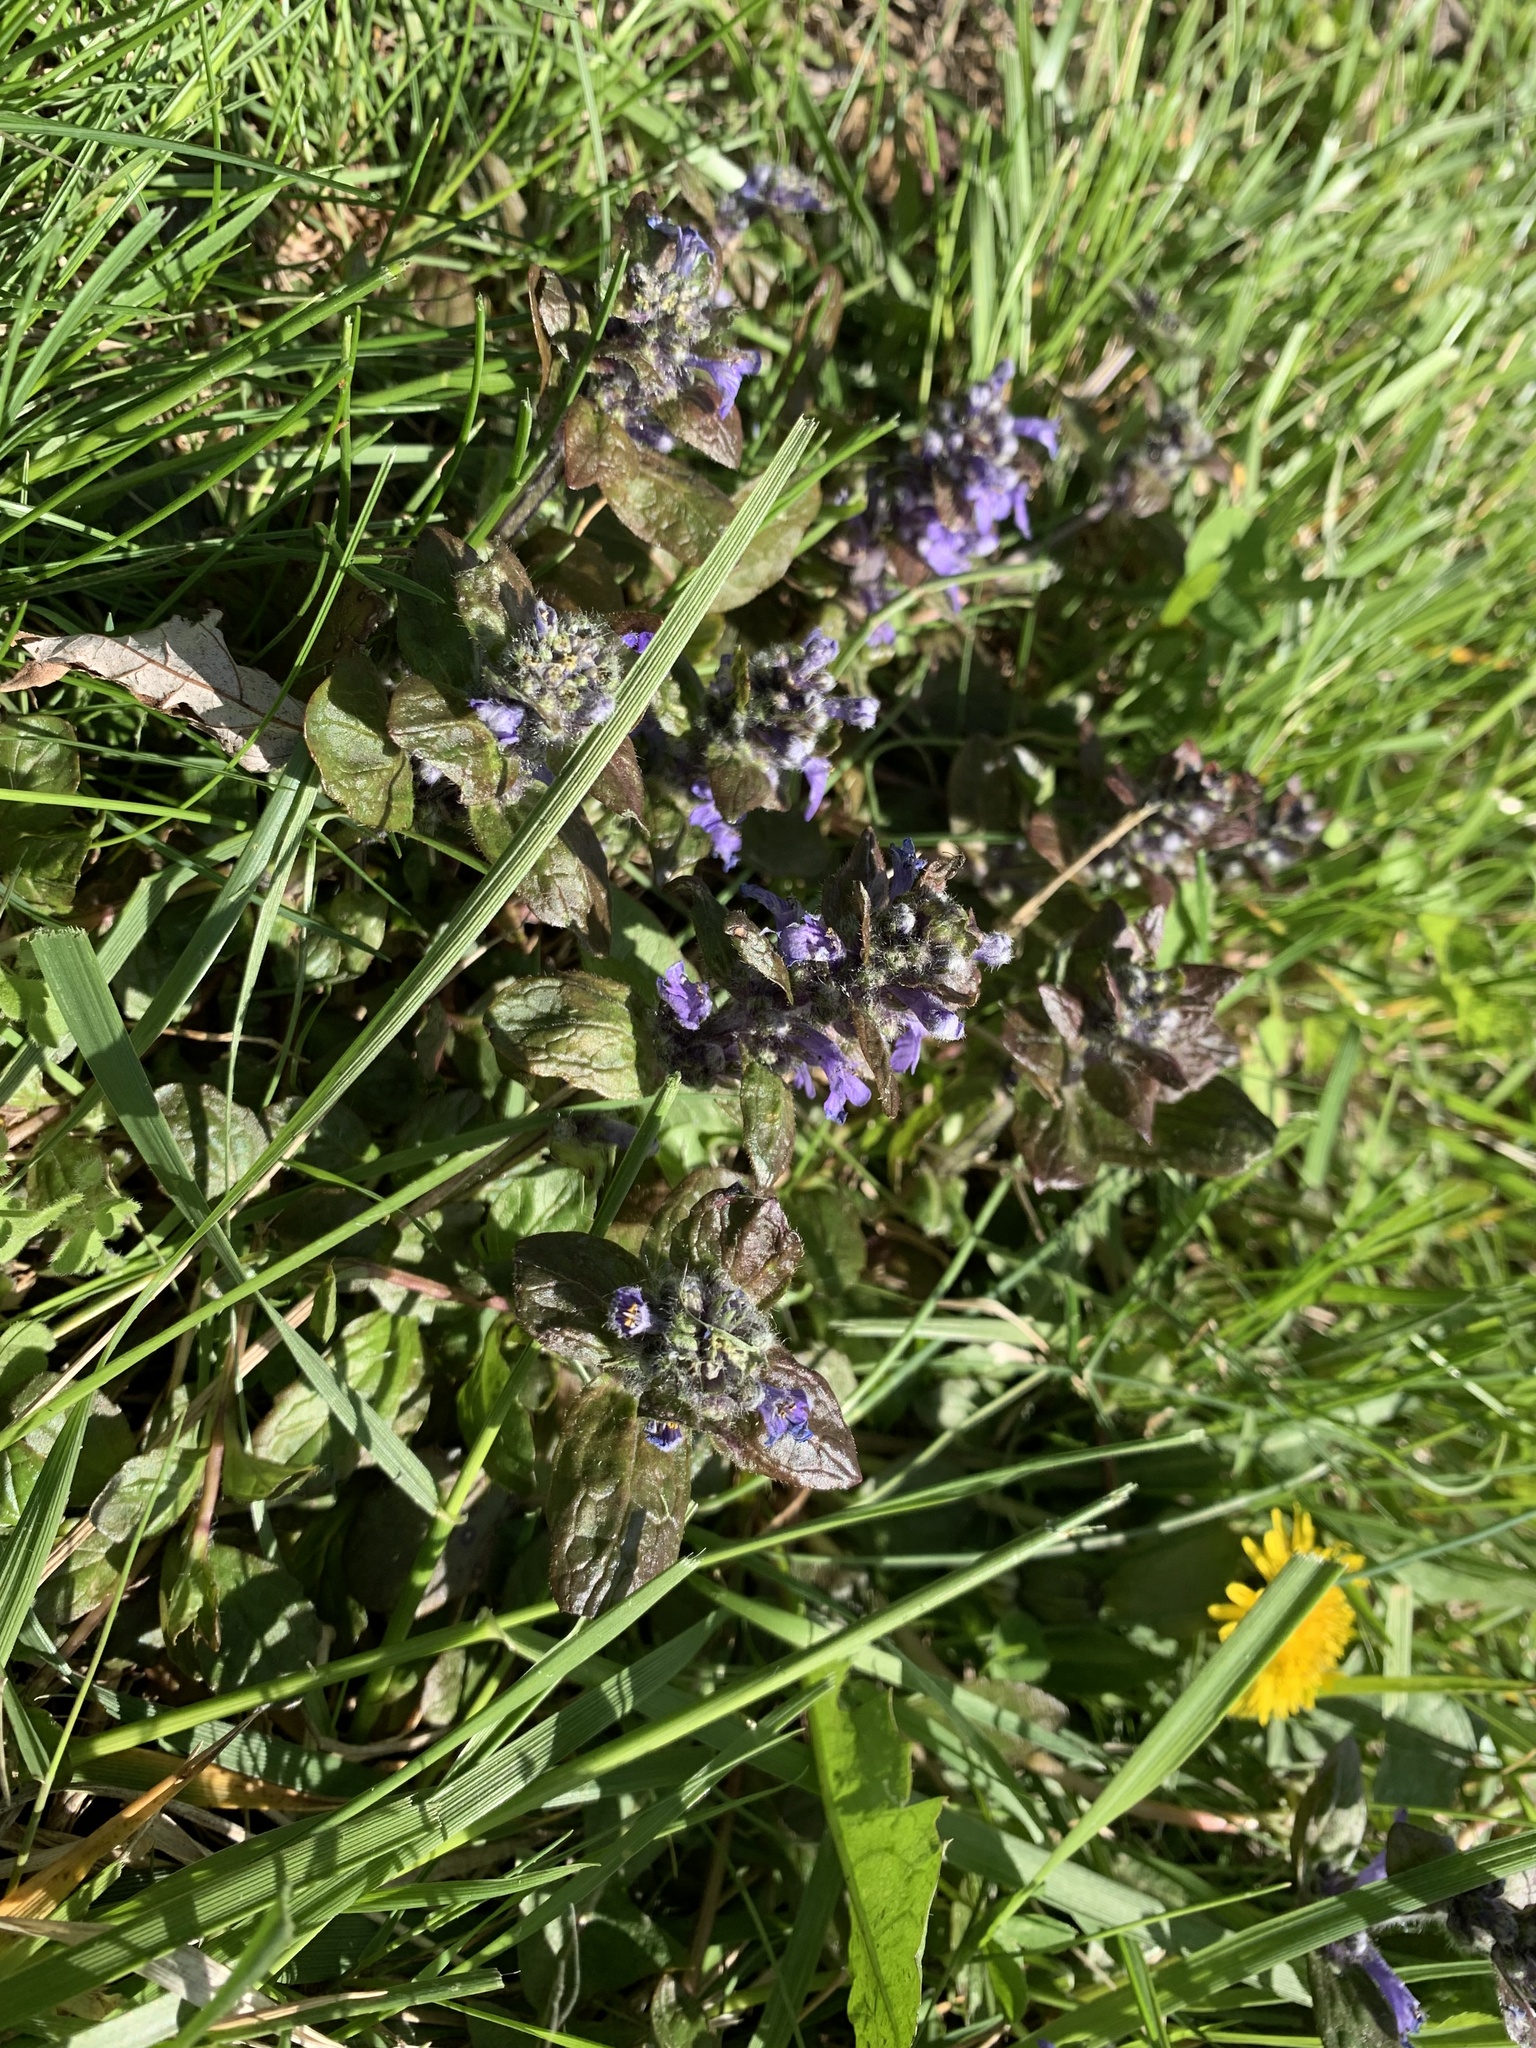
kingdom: Plantae
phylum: Tracheophyta
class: Magnoliopsida
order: Lamiales
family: Lamiaceae
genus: Ajuga
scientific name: Ajuga reptans
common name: Bugle
